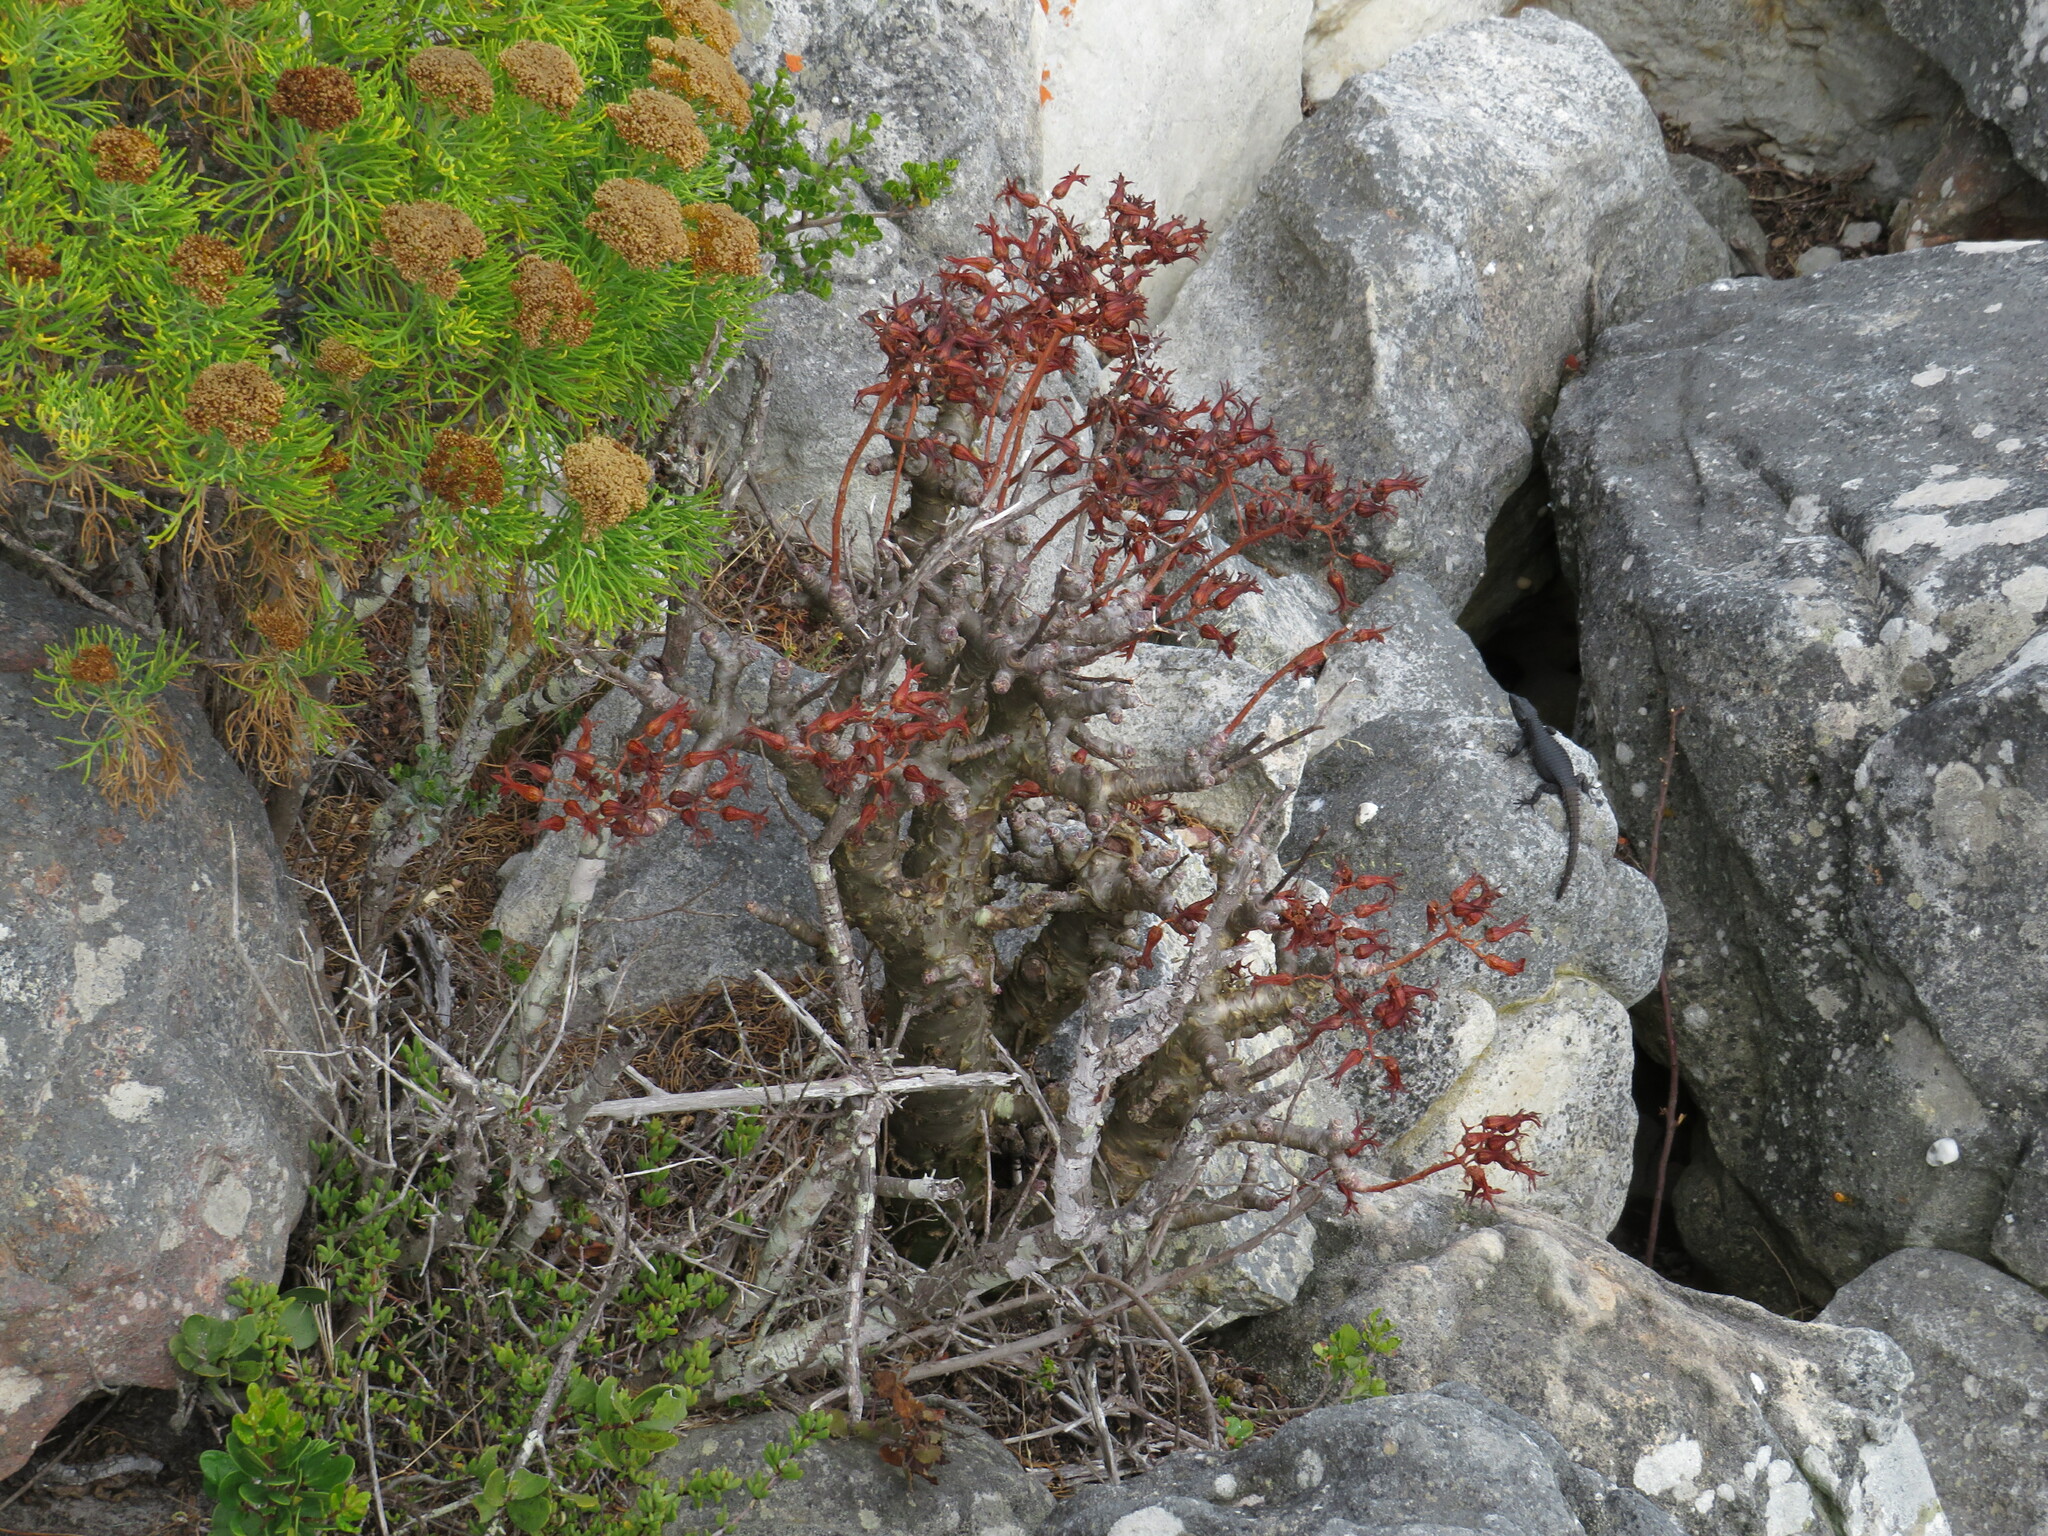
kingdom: Plantae
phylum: Tracheophyta
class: Magnoliopsida
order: Saxifragales
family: Crassulaceae
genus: Tylecodon
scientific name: Tylecodon paniculatus
